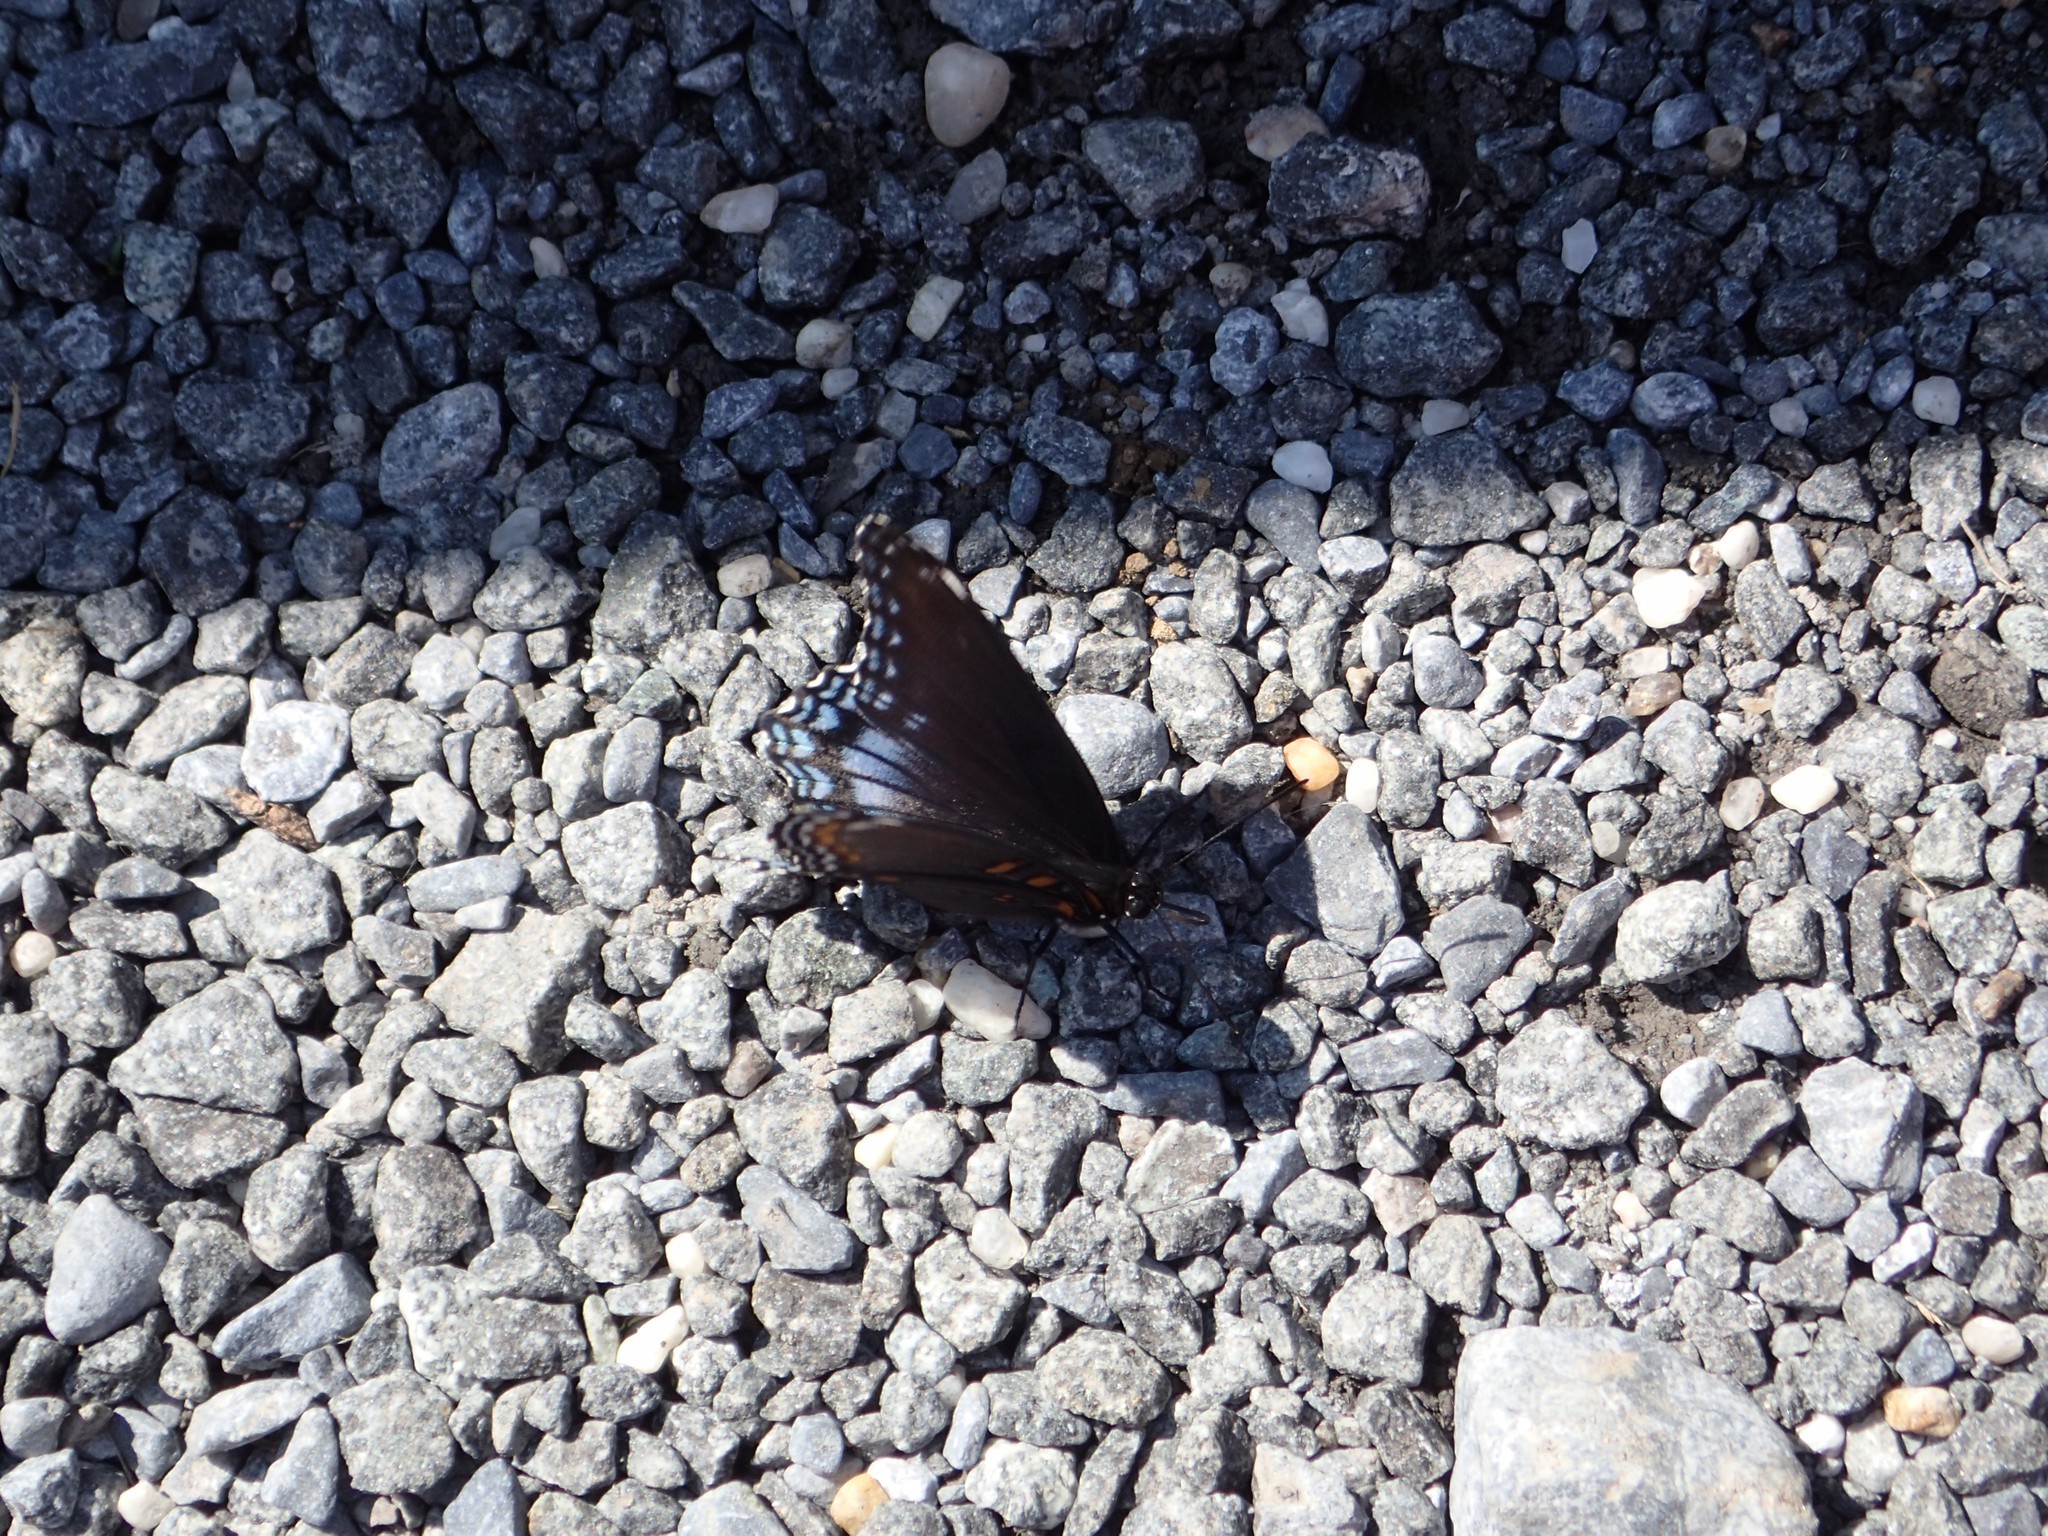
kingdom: Animalia
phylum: Arthropoda
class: Insecta
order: Lepidoptera
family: Nymphalidae
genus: Limenitis
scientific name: Limenitis astyanax
